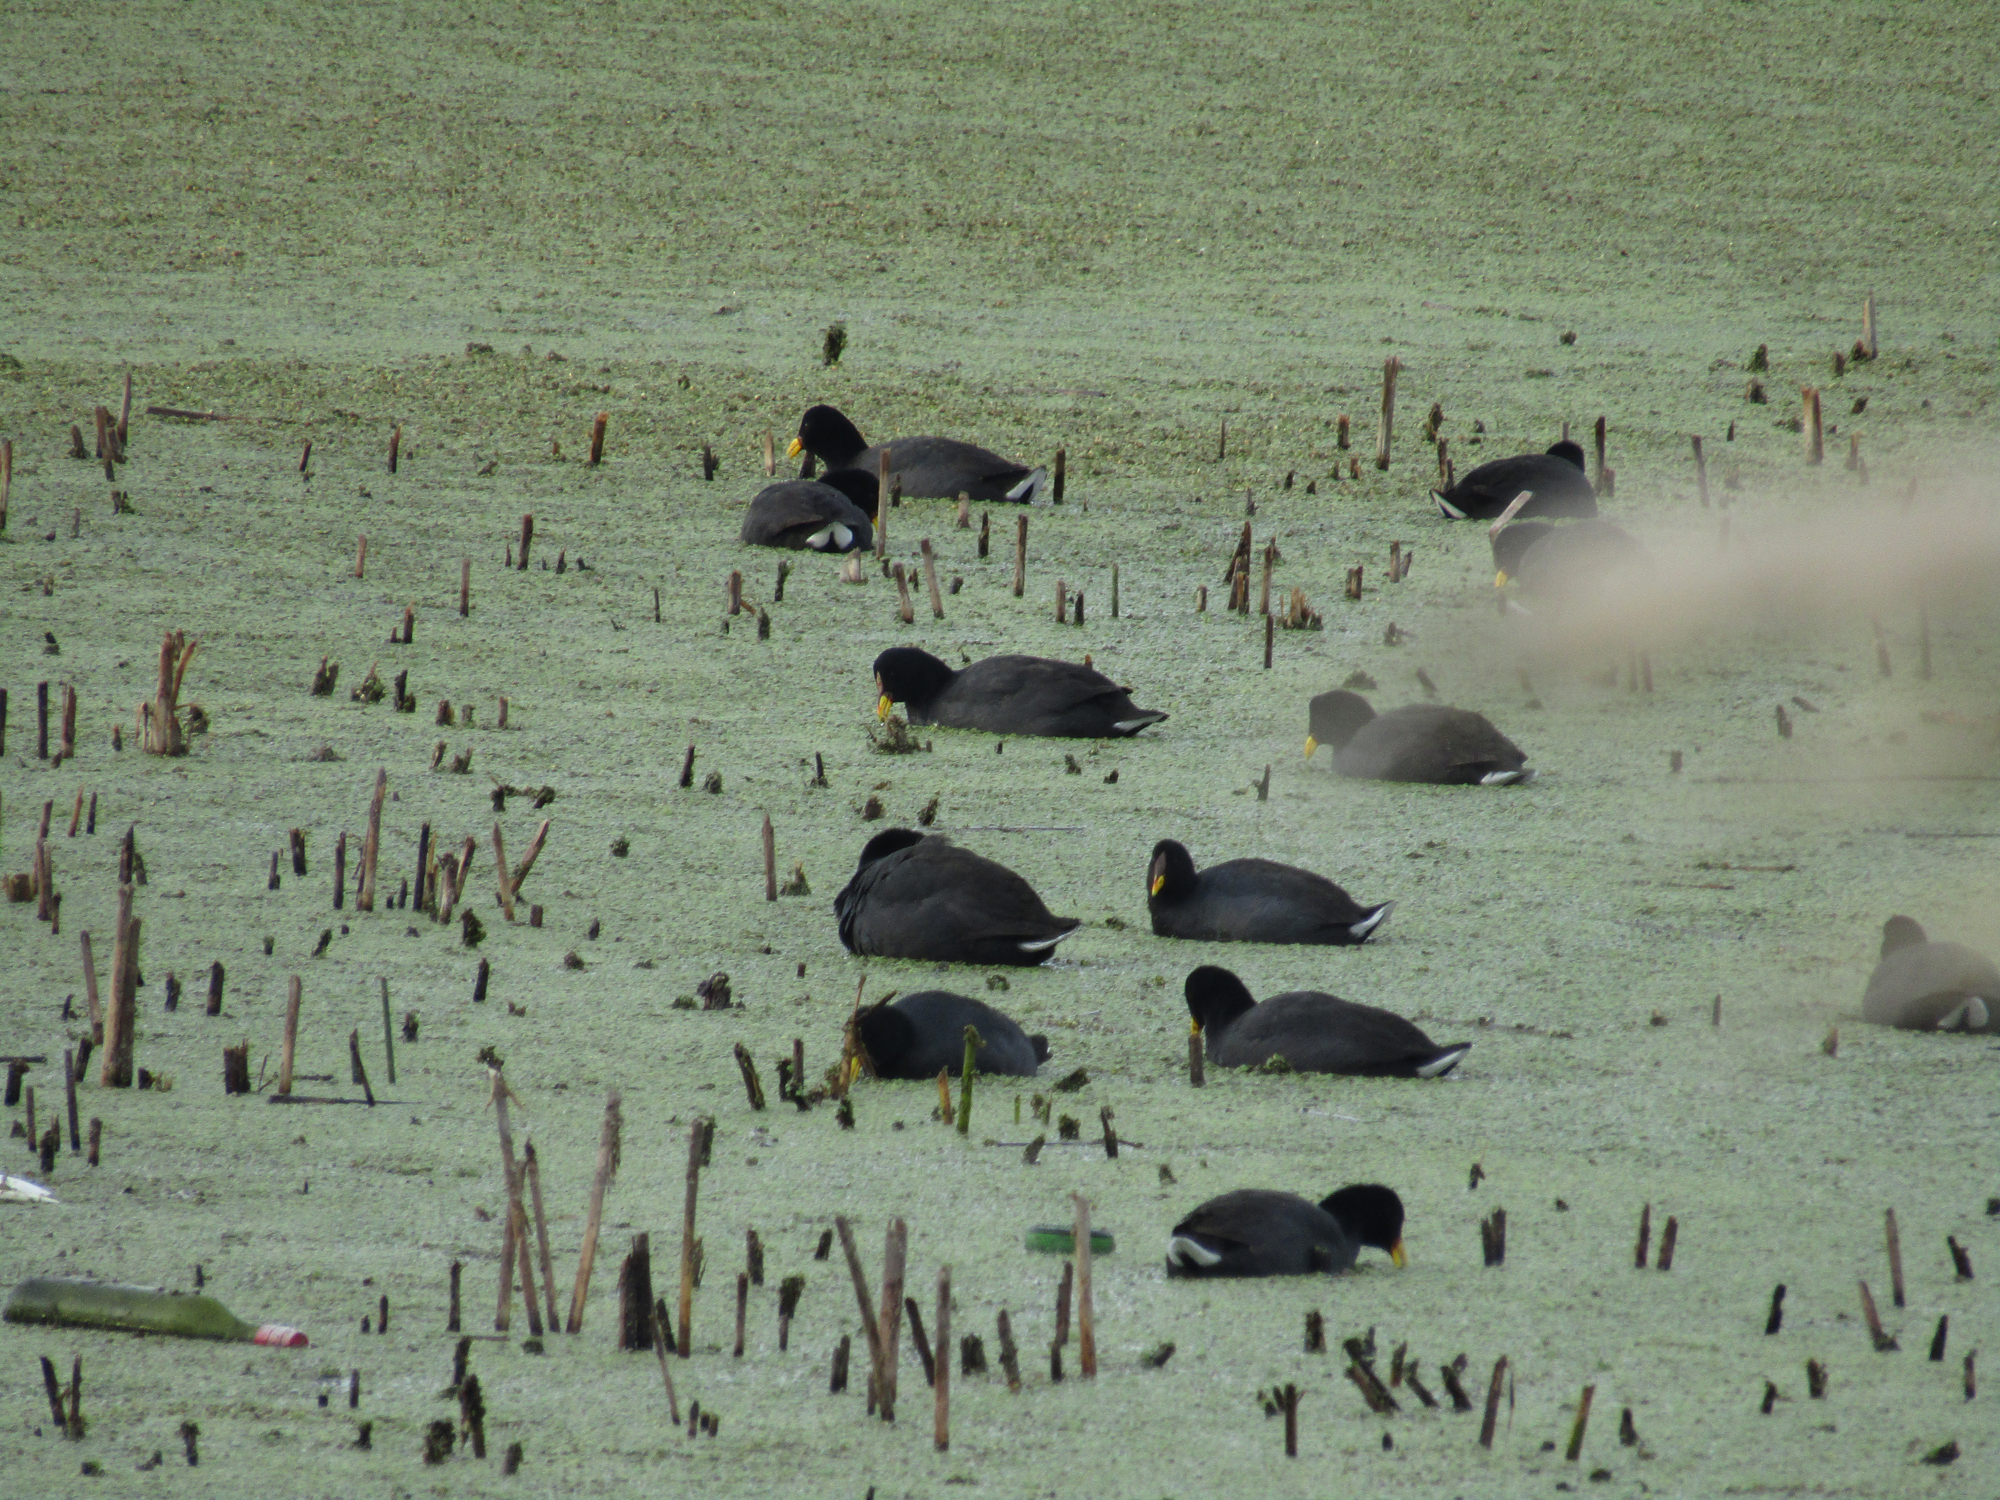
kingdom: Animalia
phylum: Chordata
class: Aves
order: Gruiformes
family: Rallidae
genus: Fulica
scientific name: Fulica rufifrons
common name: Red-fronted coot
